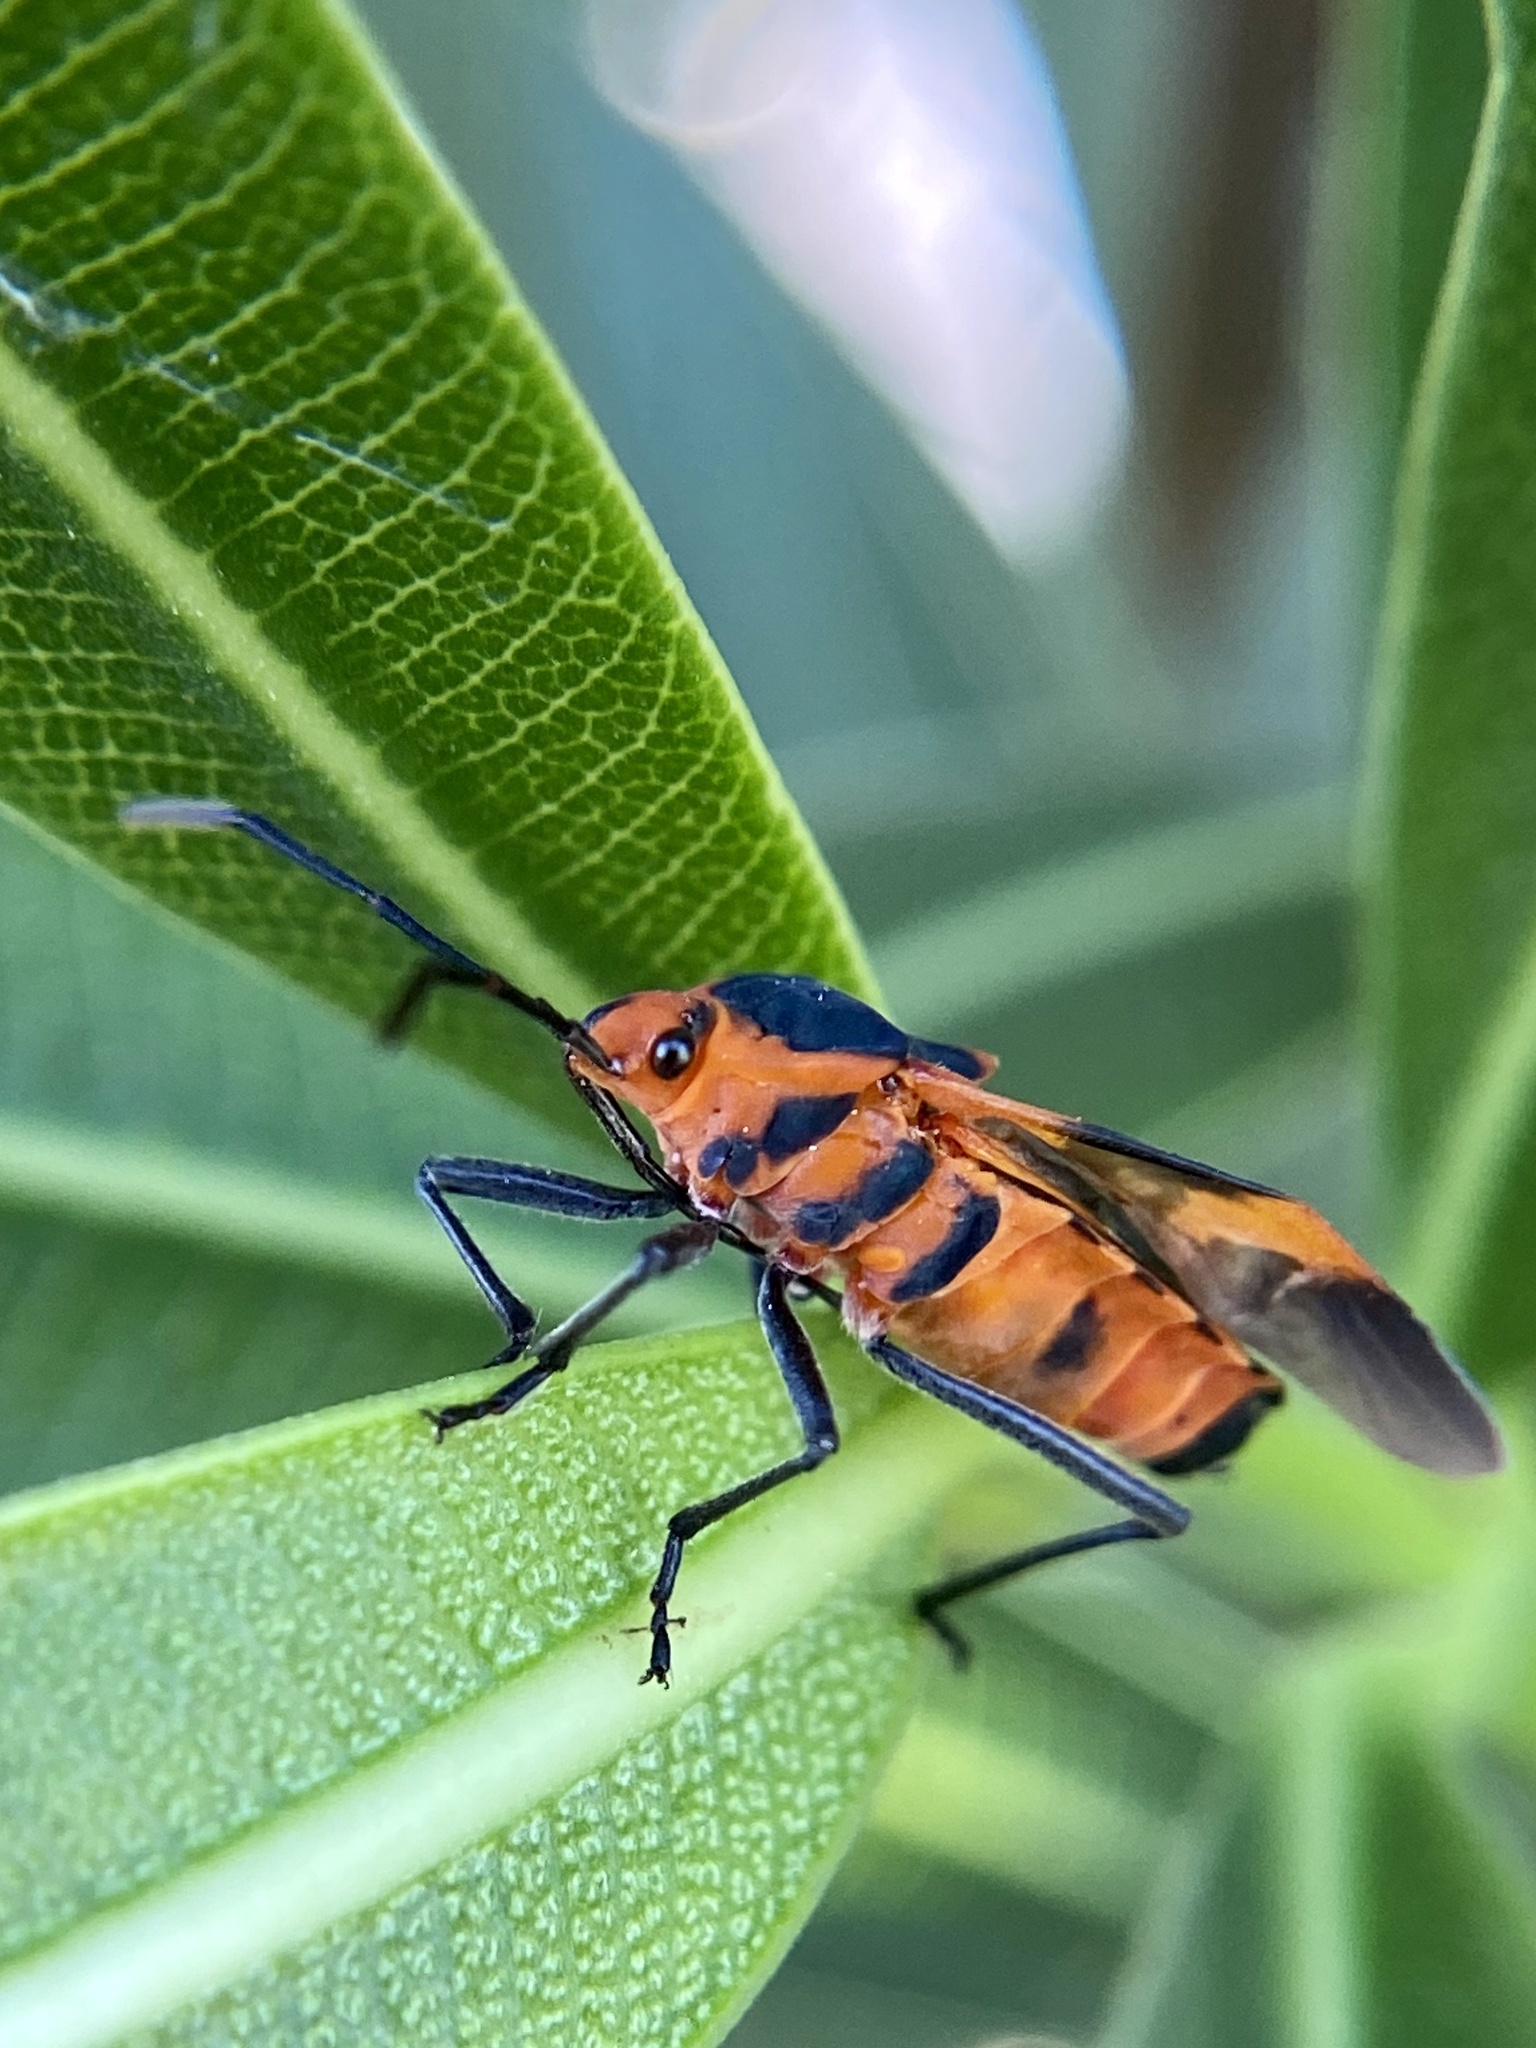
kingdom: Animalia
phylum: Arthropoda
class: Insecta
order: Hemiptera
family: Lygaeidae
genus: Oncopeltus
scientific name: Oncopeltus aulicus
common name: Lygaeid bug
